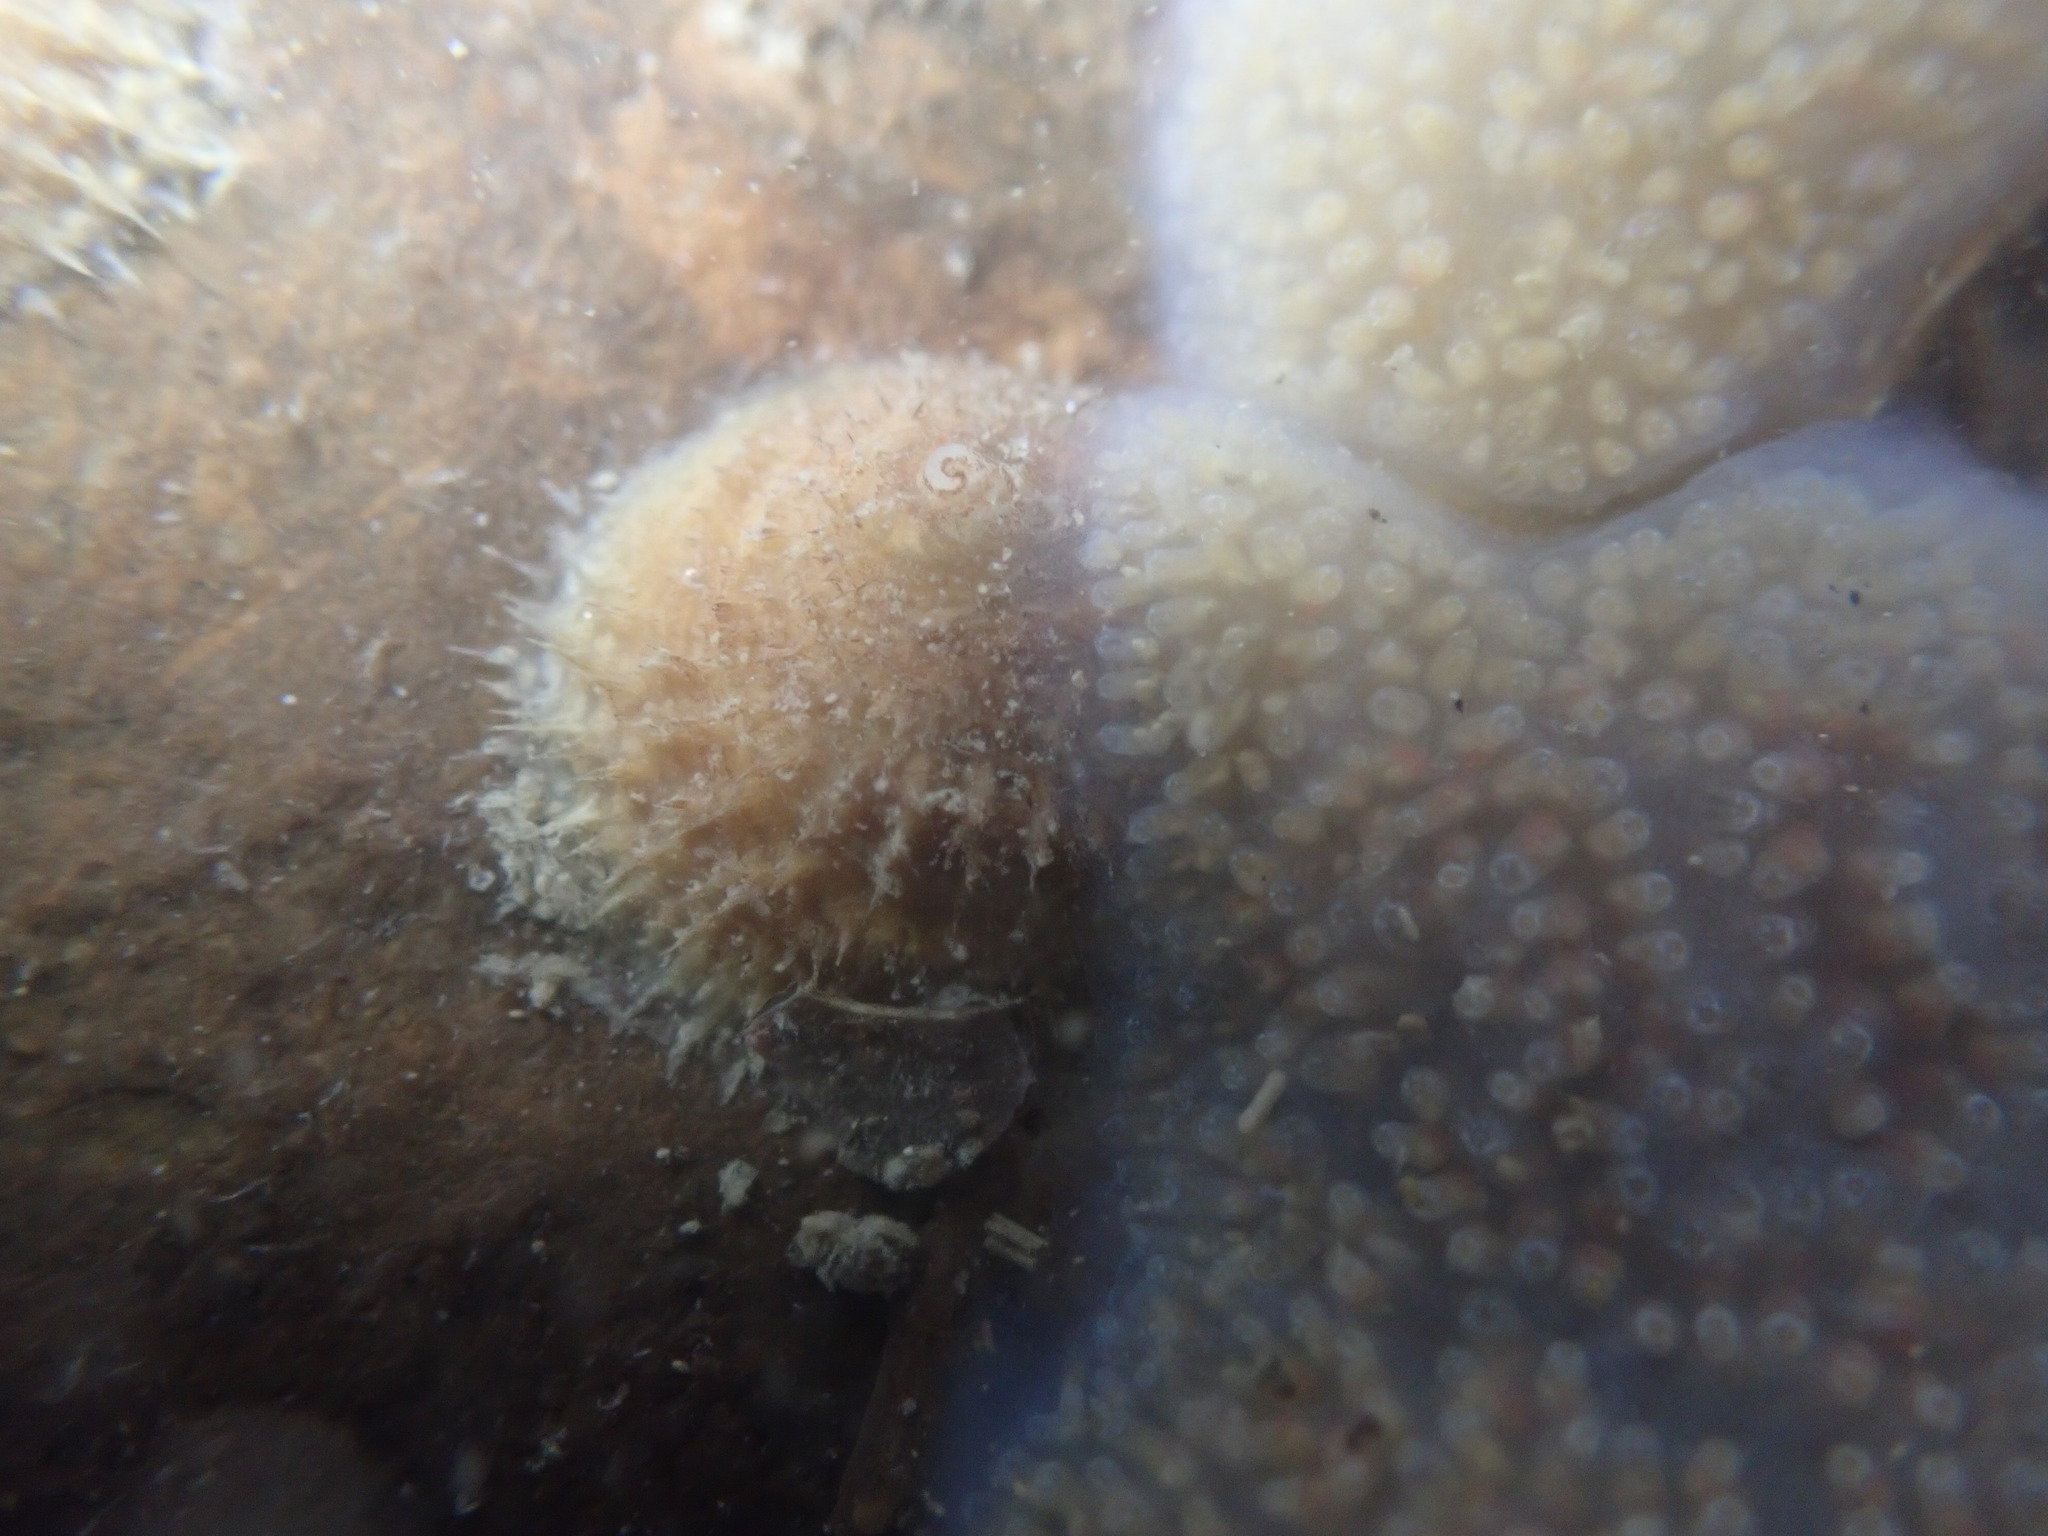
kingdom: Animalia
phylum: Mollusca
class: Gastropoda
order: Littorinimorpha
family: Calyptraeidae
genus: Sigapatella
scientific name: Sigapatella novaezelandiae
